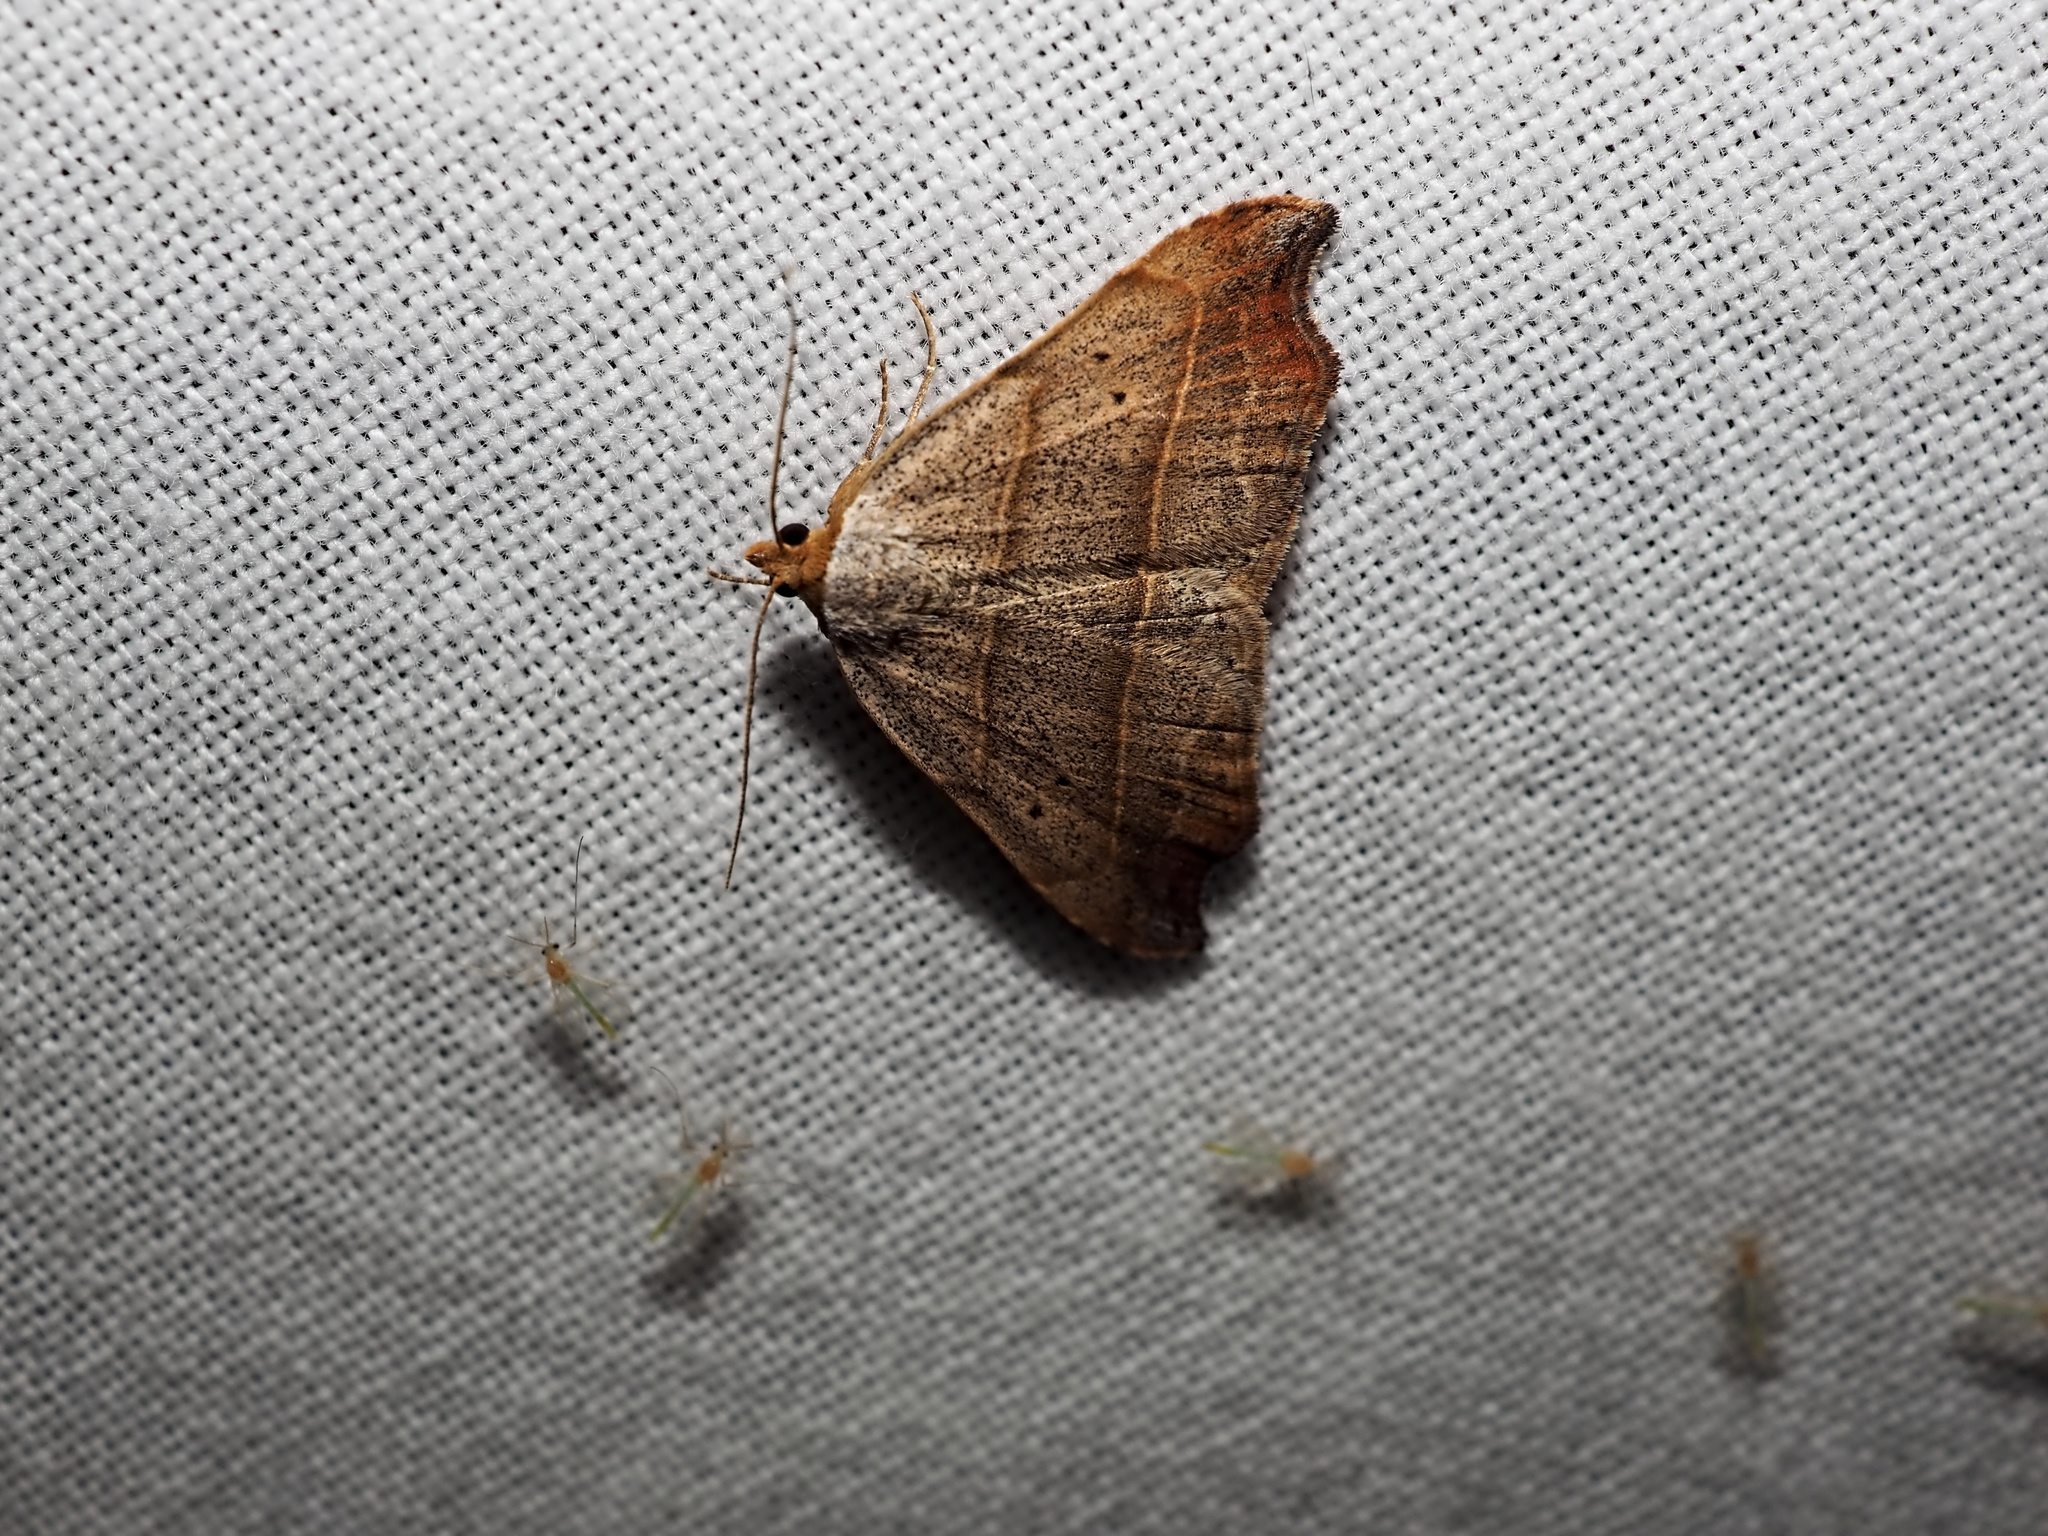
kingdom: Animalia
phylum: Arthropoda
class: Insecta
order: Lepidoptera
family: Erebidae
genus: Laspeyria
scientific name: Laspeyria flexula
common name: Beautiful hook-tip
